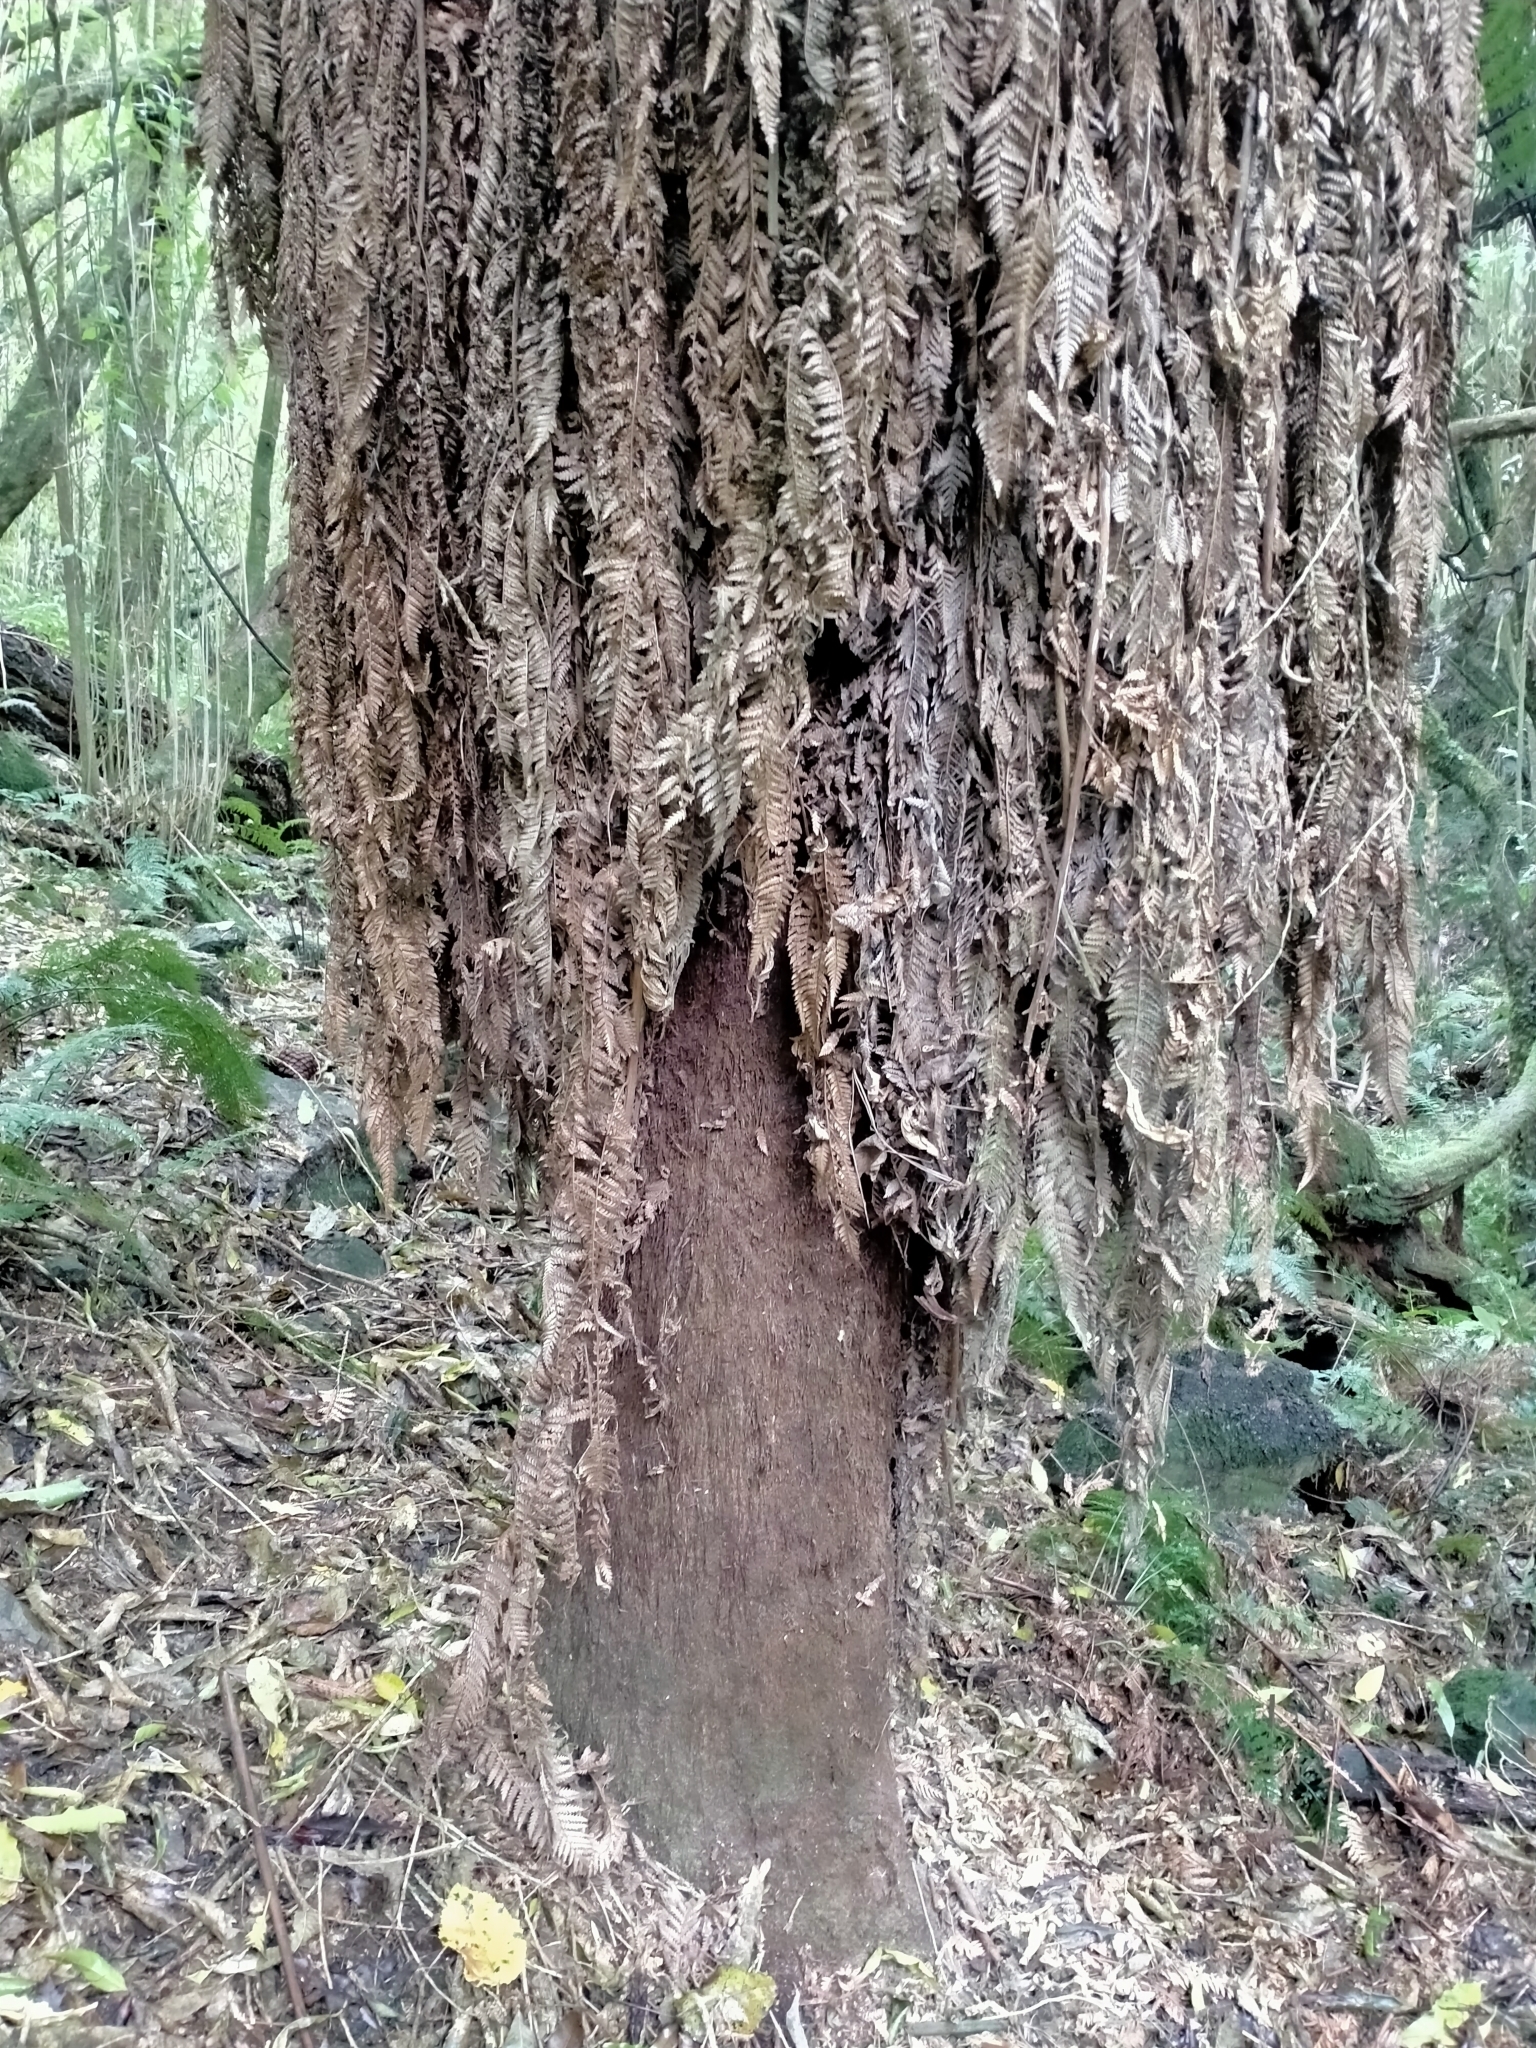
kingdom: Plantae
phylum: Tracheophyta
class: Polypodiopsida
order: Cyatheales
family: Dicksoniaceae
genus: Dicksonia
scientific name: Dicksonia fibrosa
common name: Golden tree fern
